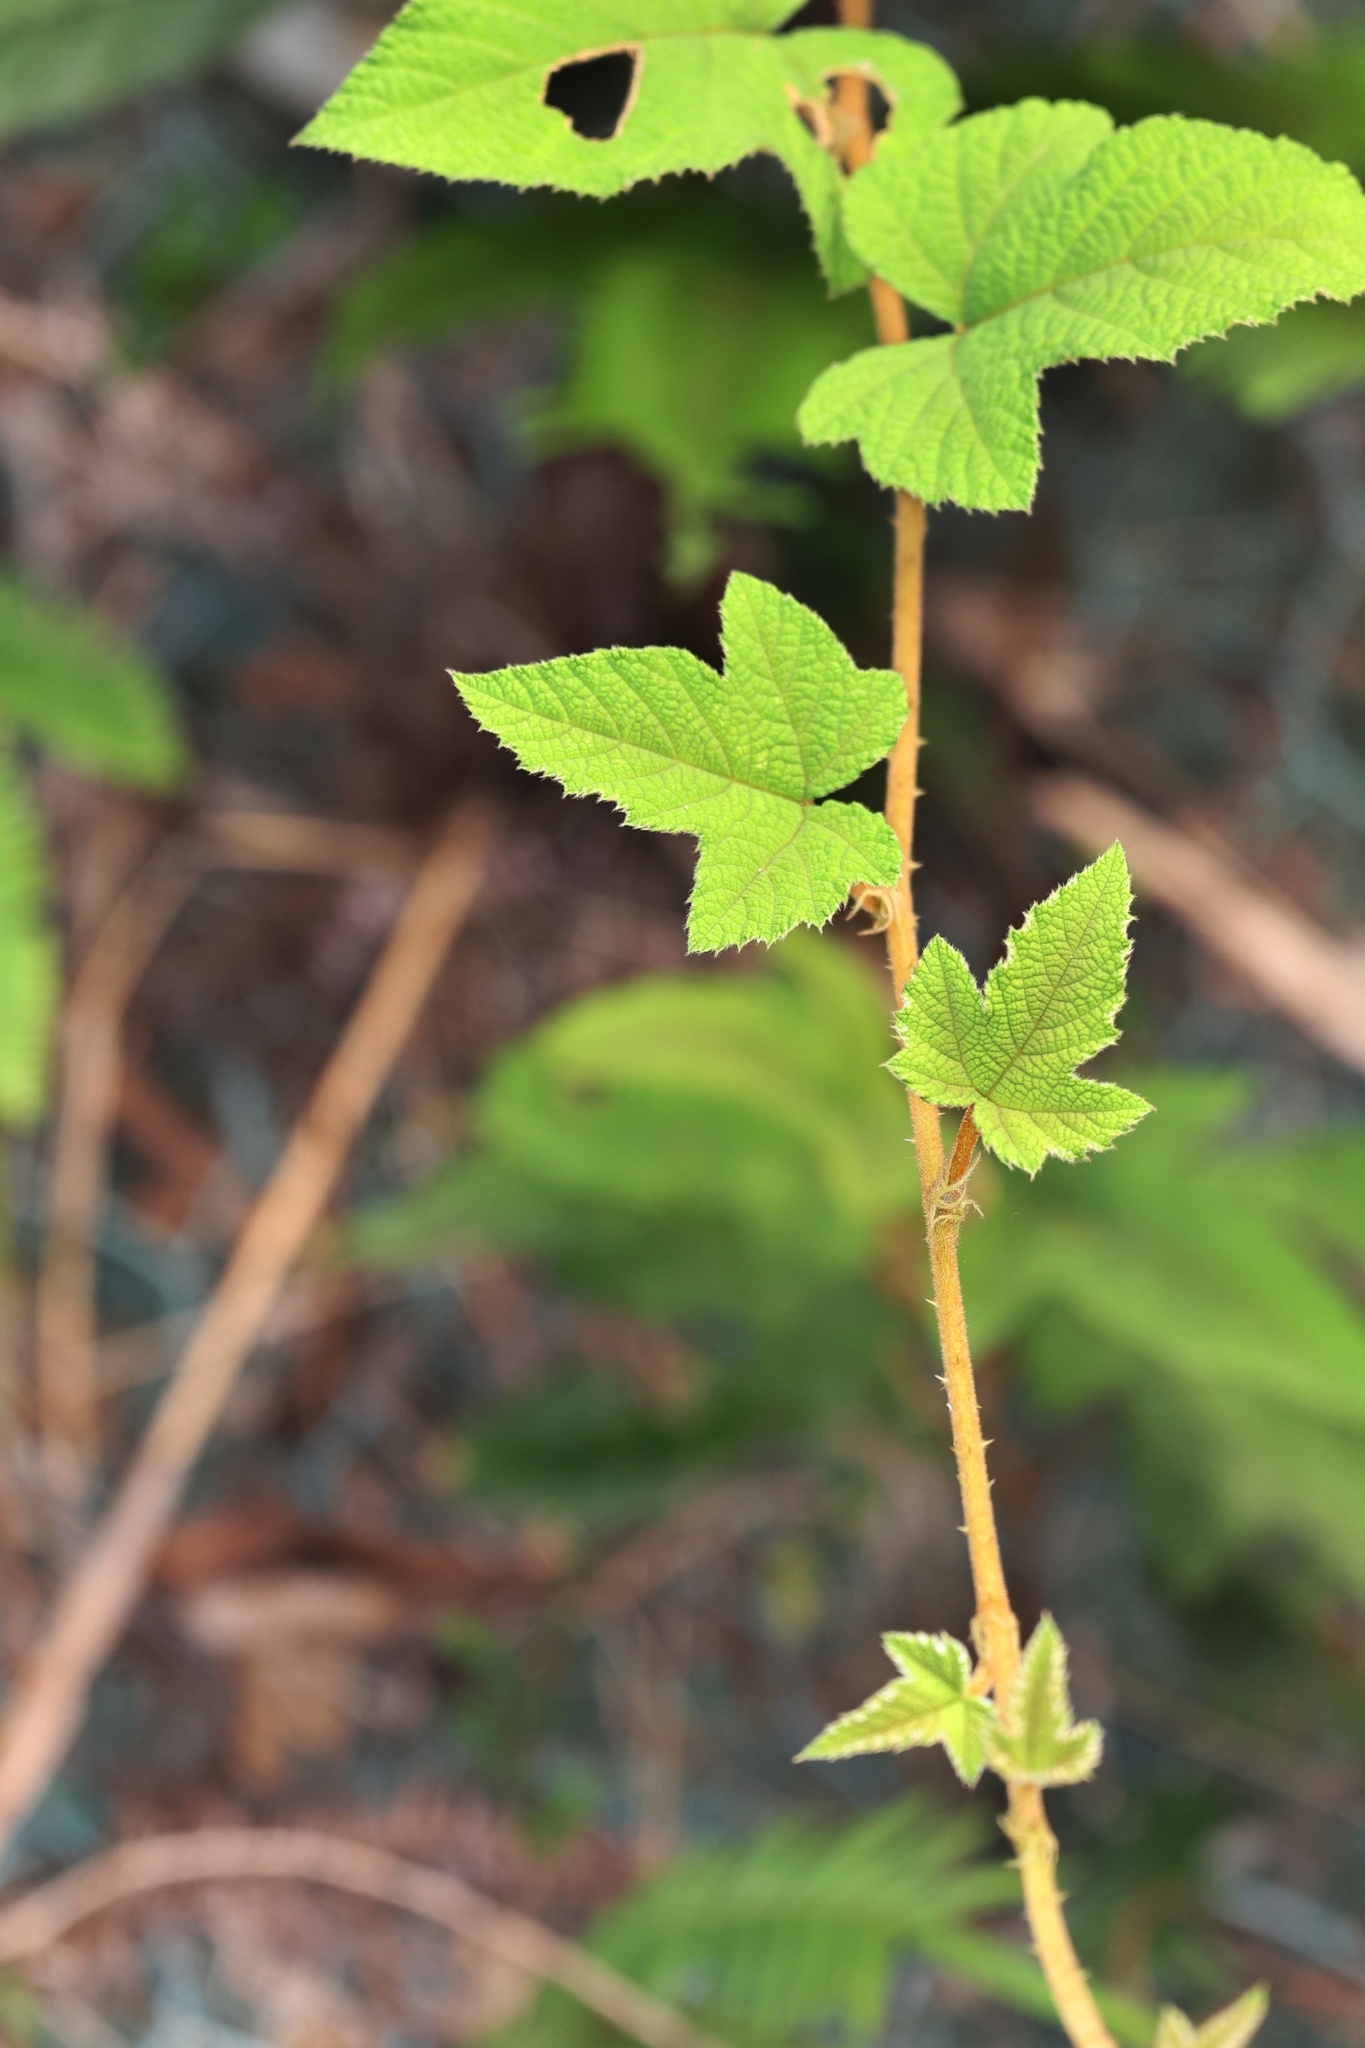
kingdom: Plantae
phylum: Tracheophyta
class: Magnoliopsida
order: Rosales
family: Rosaceae
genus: Rubus
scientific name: Rubus reflexus
